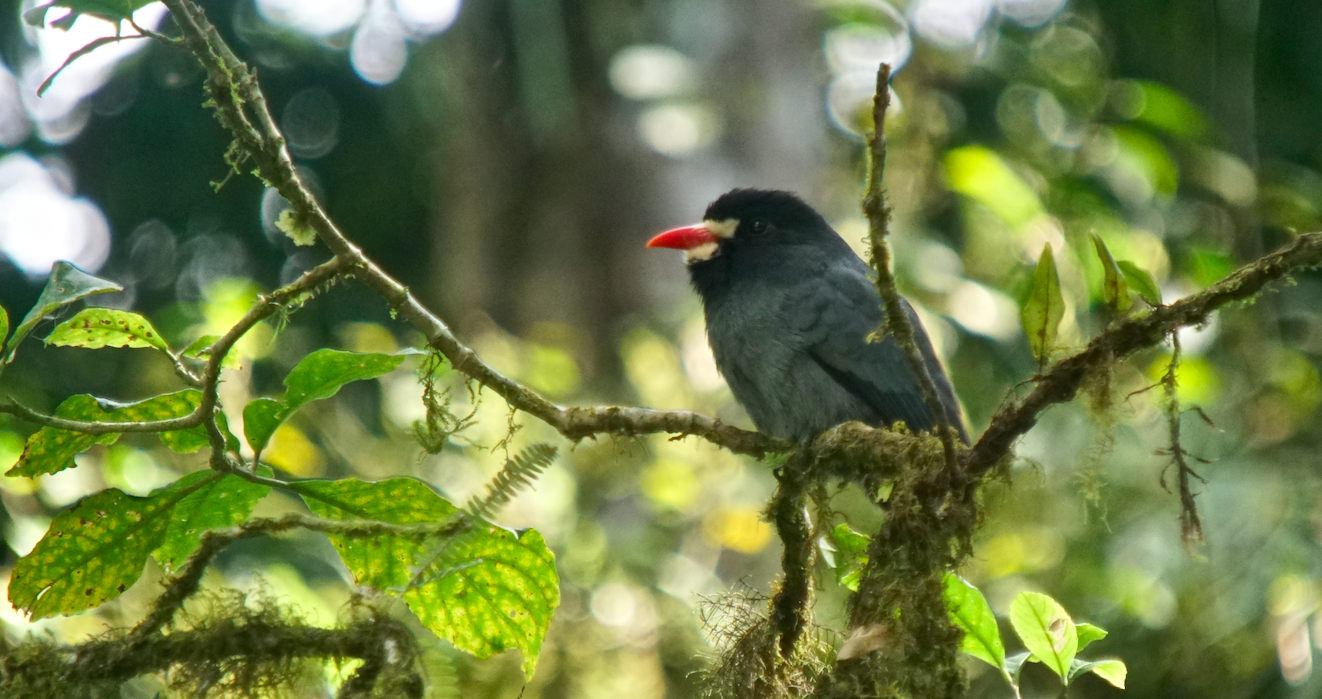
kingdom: Animalia
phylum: Chordata
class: Aves
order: Piciformes
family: Bucconidae
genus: Monasa
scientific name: Monasa morphoeus
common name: White-fronted nunbird
